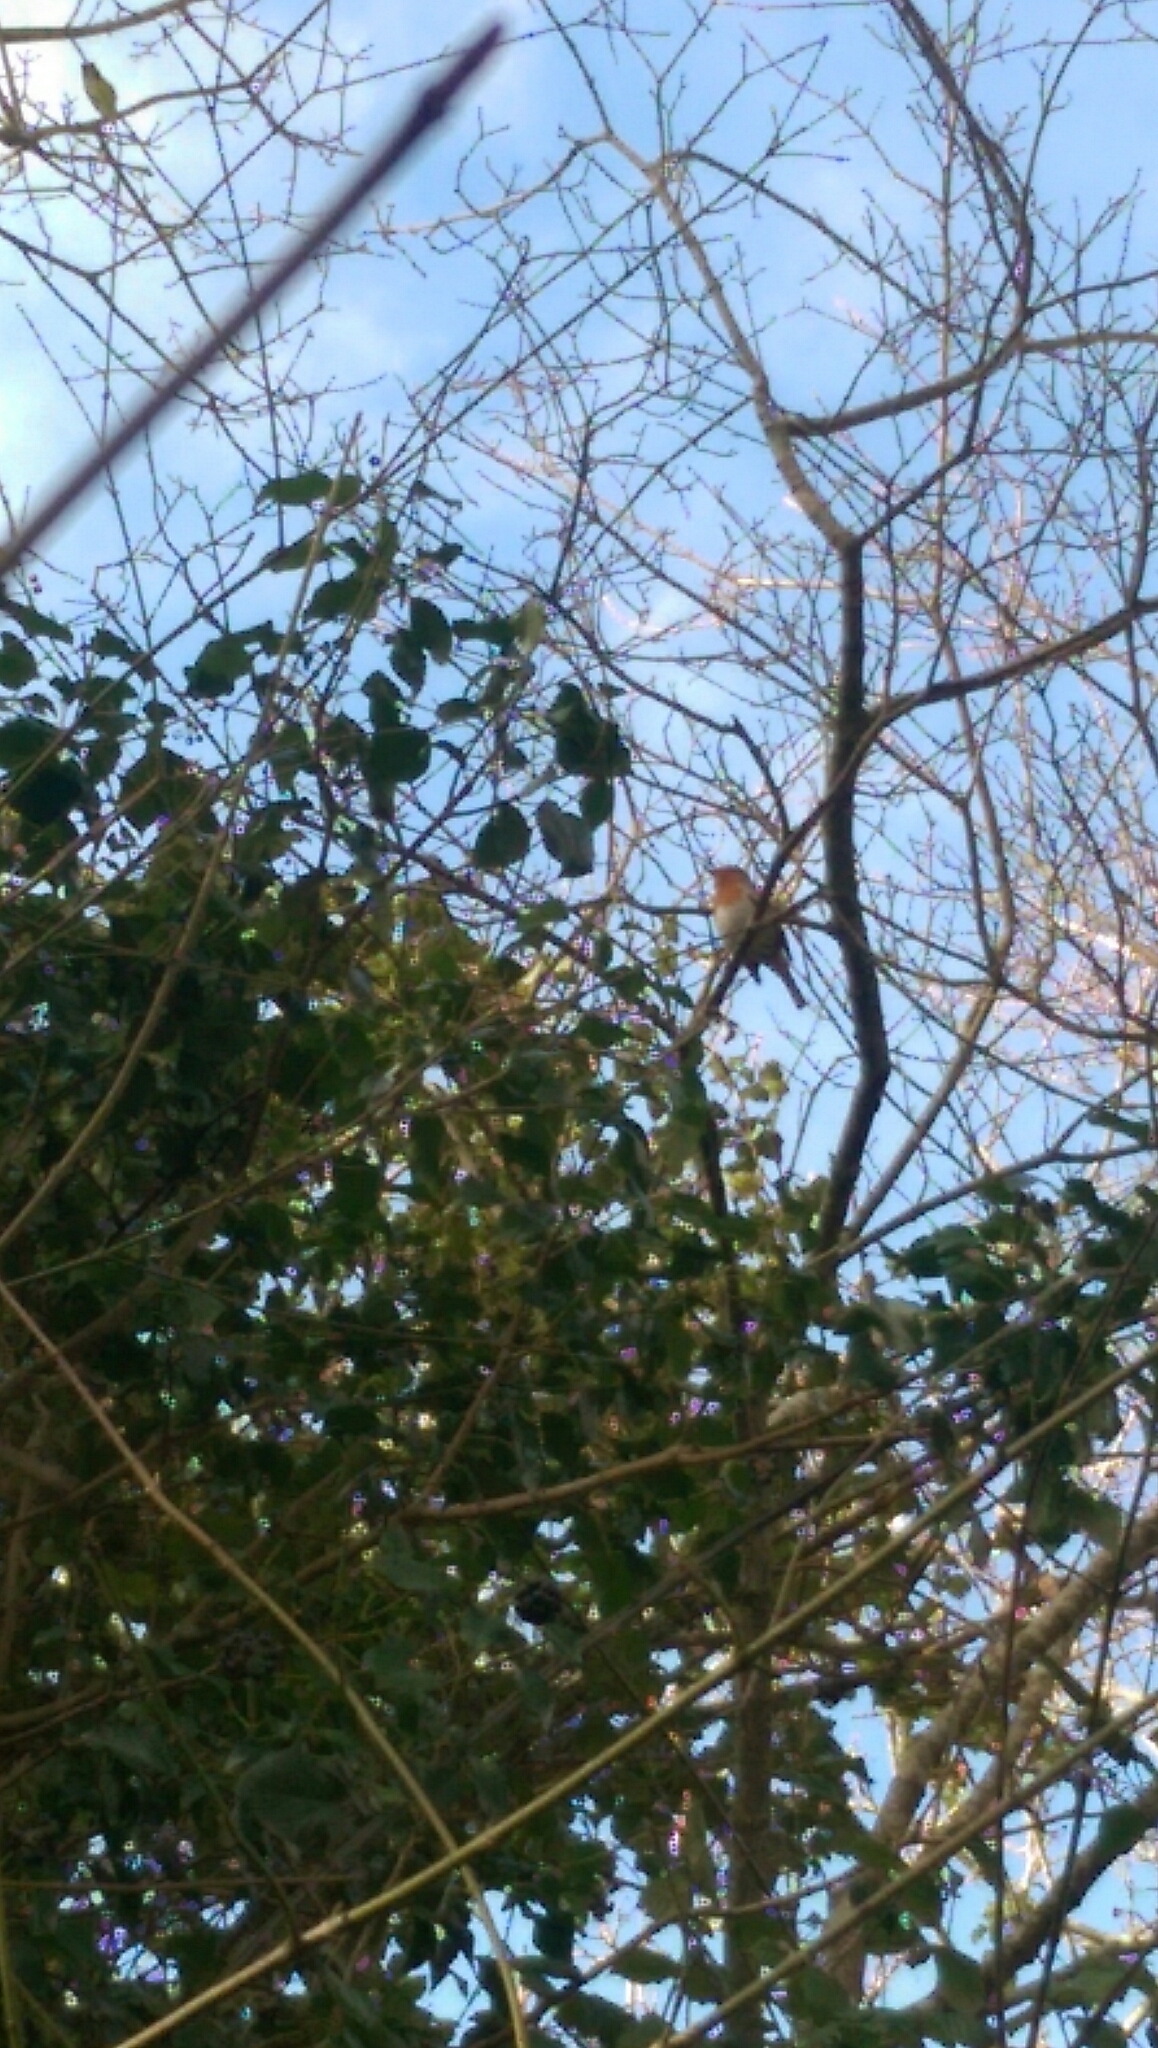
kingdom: Animalia
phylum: Chordata
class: Aves
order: Passeriformes
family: Muscicapidae
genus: Erithacus
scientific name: Erithacus rubecula
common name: European robin
